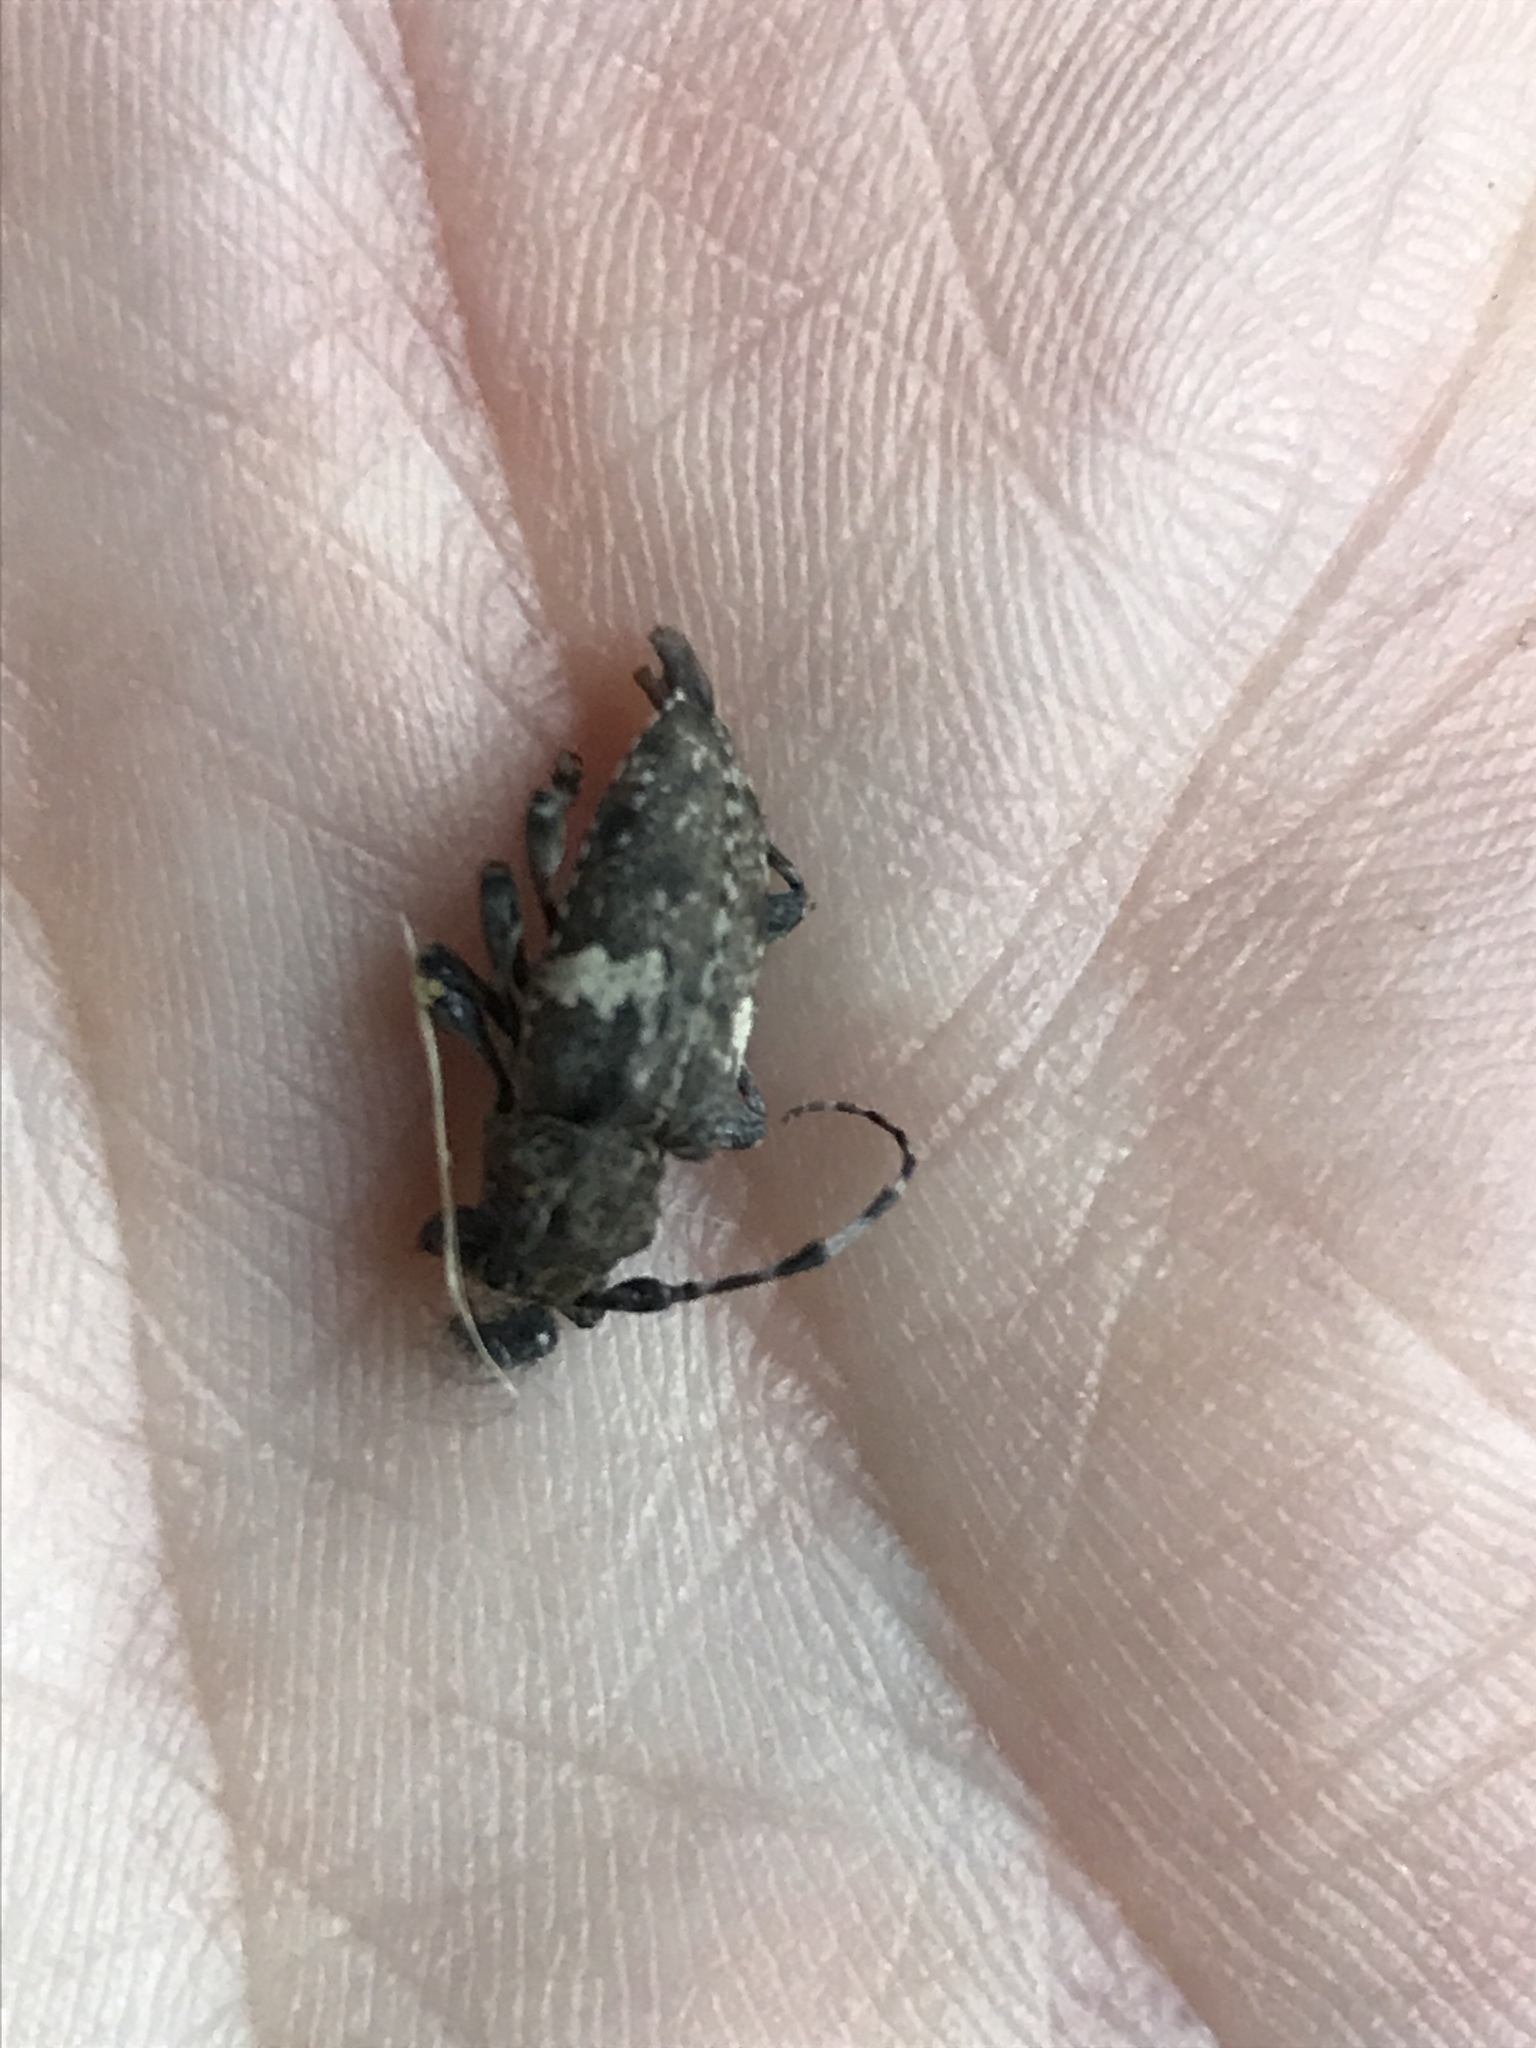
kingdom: Animalia
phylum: Arthropoda
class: Insecta
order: Coleoptera
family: Cerambycidae
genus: Acanthoderes
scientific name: Acanthoderes quadrigibba
